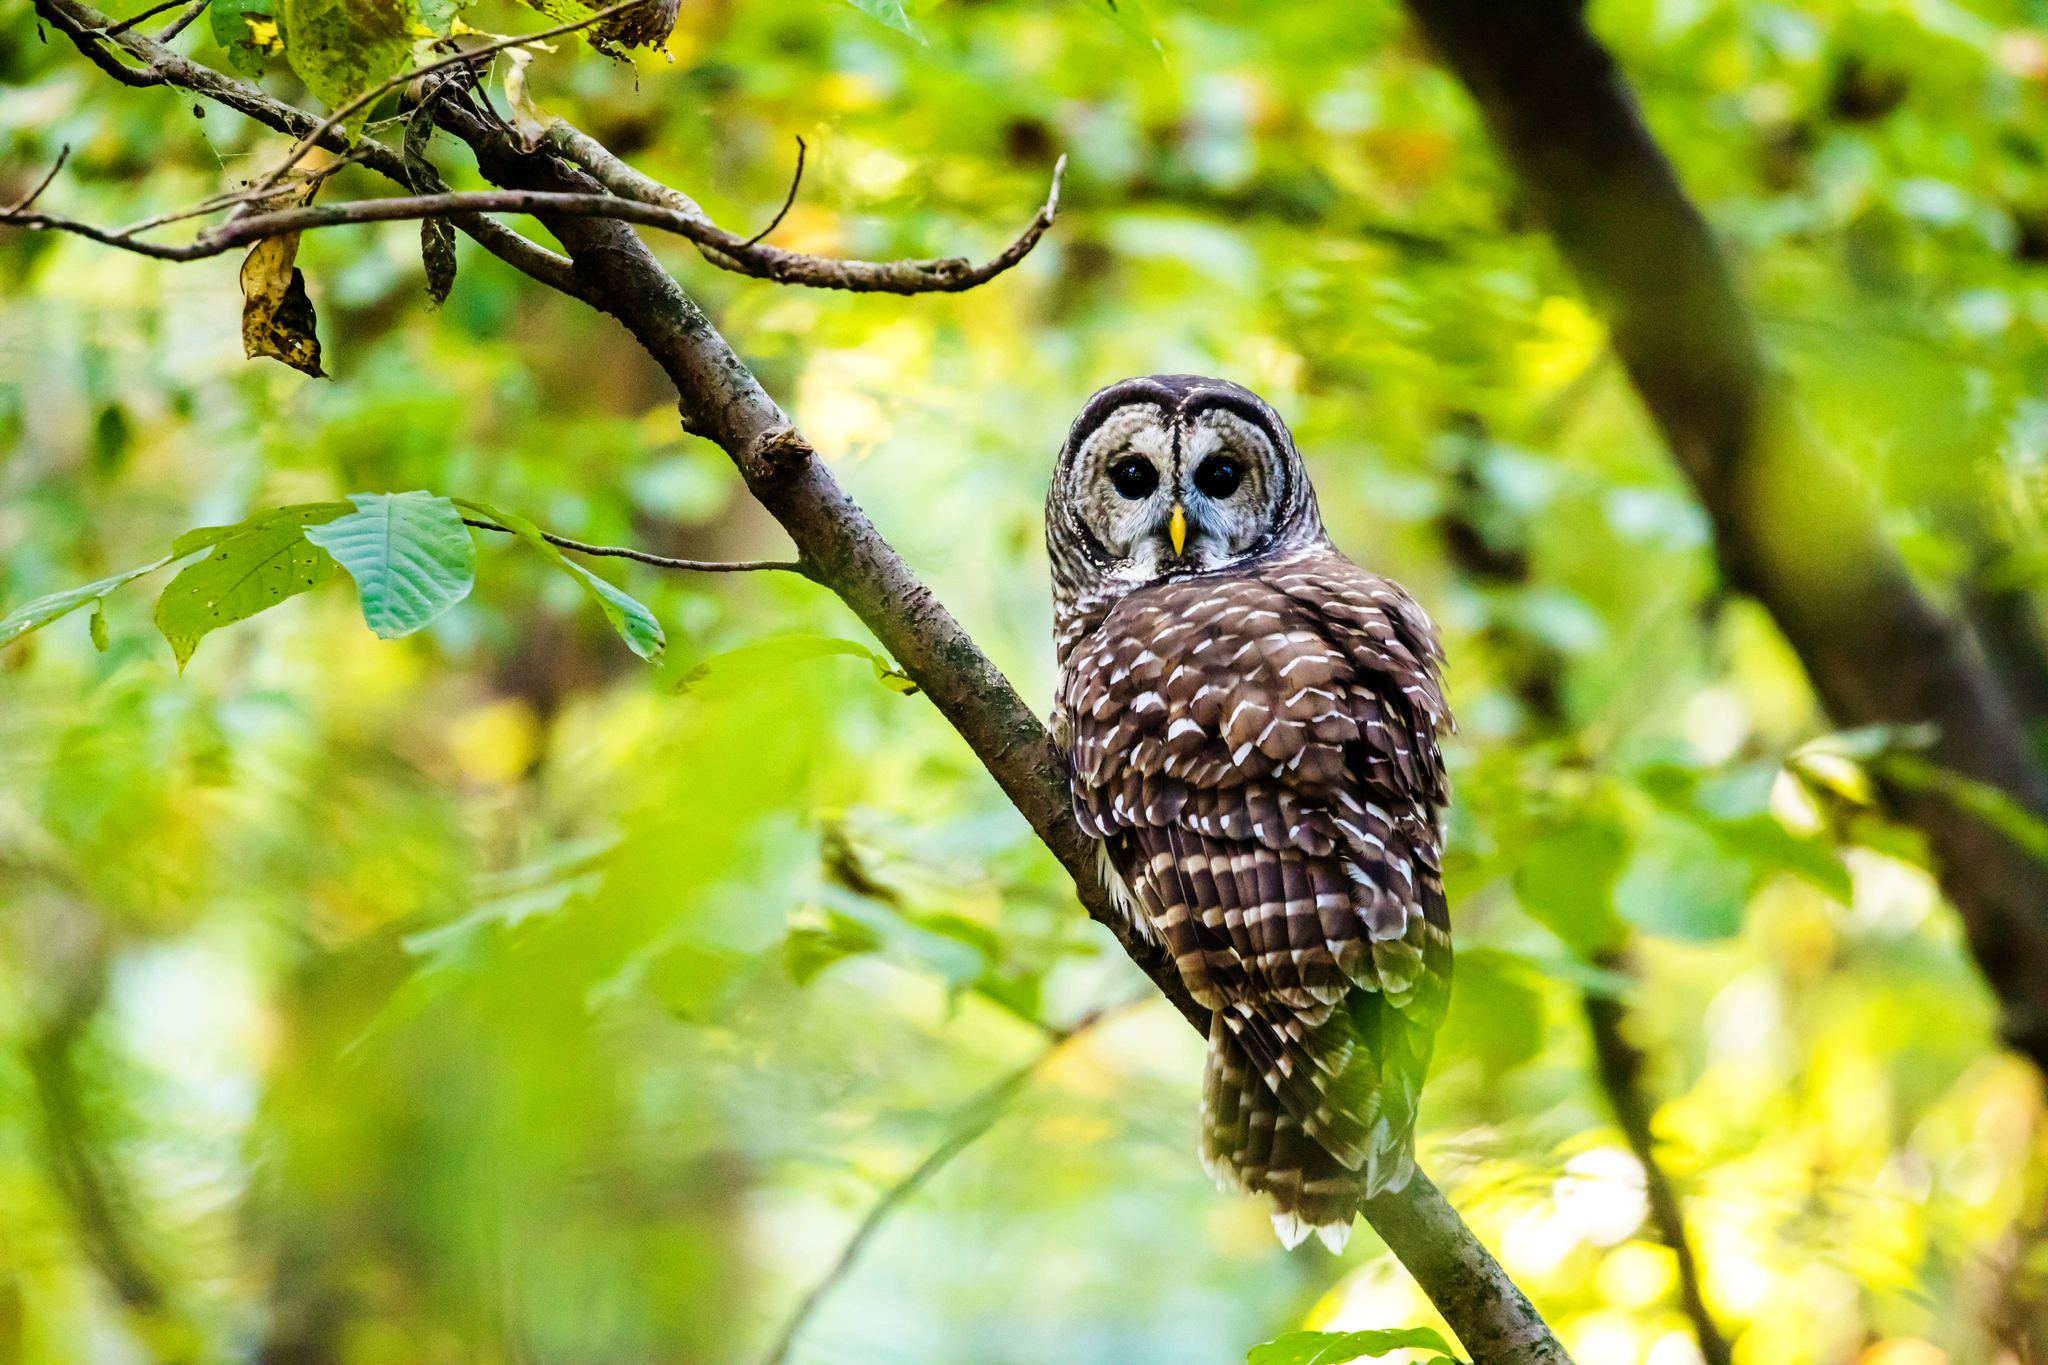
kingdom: Animalia
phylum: Chordata
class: Aves
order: Strigiformes
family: Strigidae
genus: Strix
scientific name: Strix varia
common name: Barred owl
